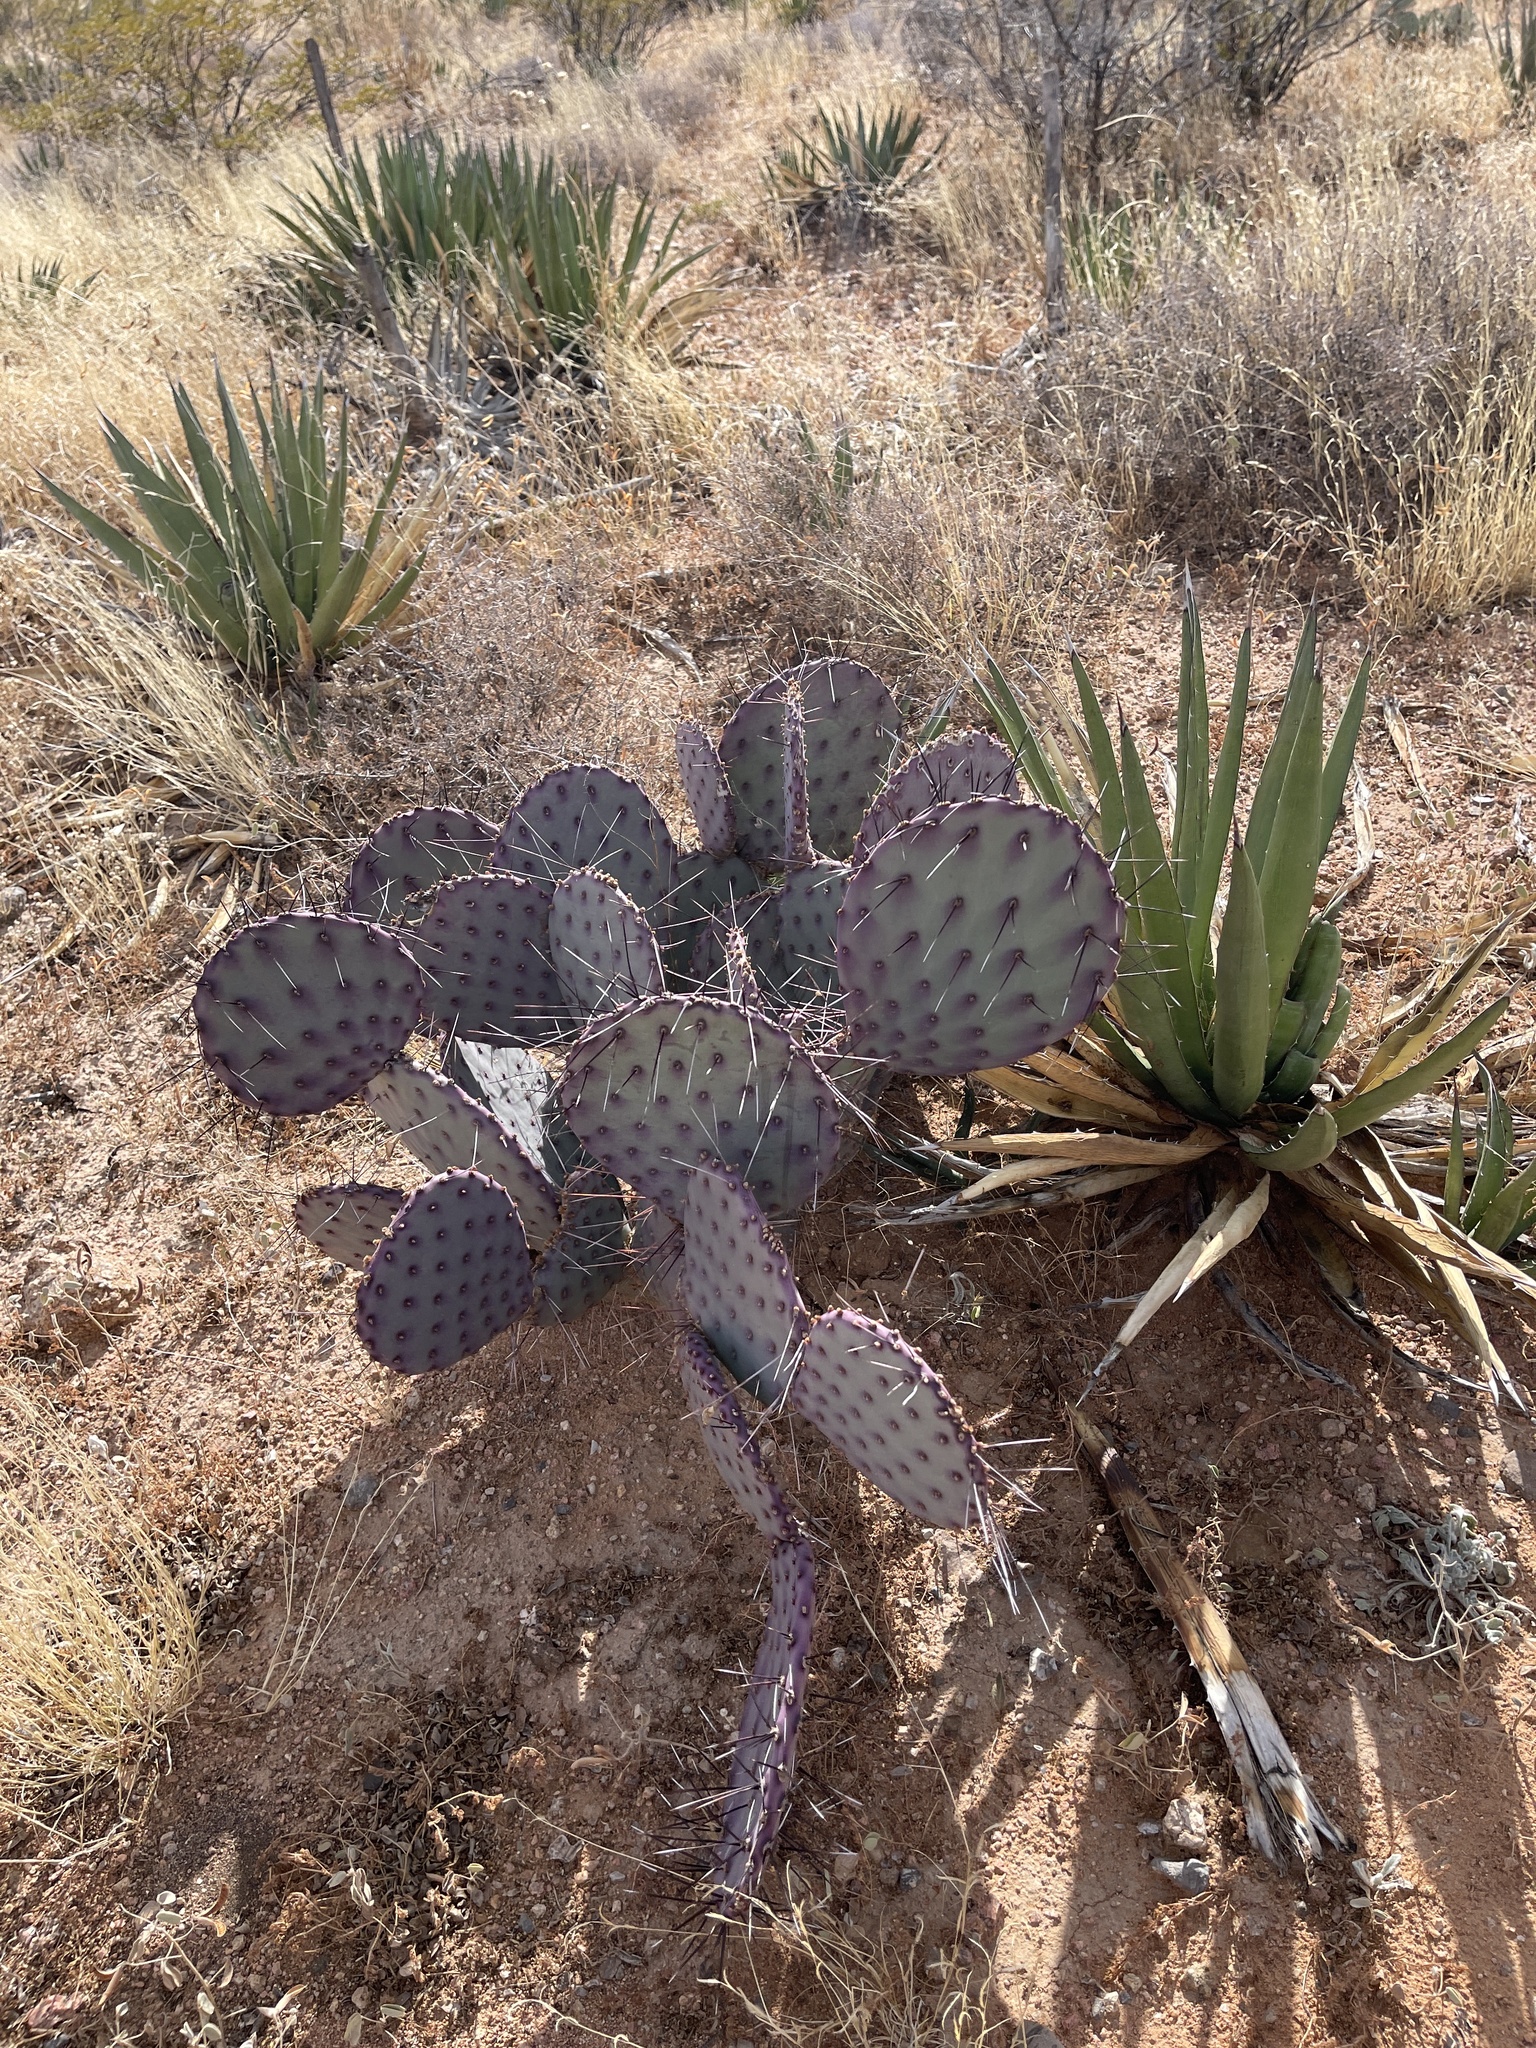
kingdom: Plantae
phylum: Tracheophyta
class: Magnoliopsida
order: Caryophyllales
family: Cactaceae
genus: Opuntia
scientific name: Opuntia macrocentra
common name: Purple prickly-pear
